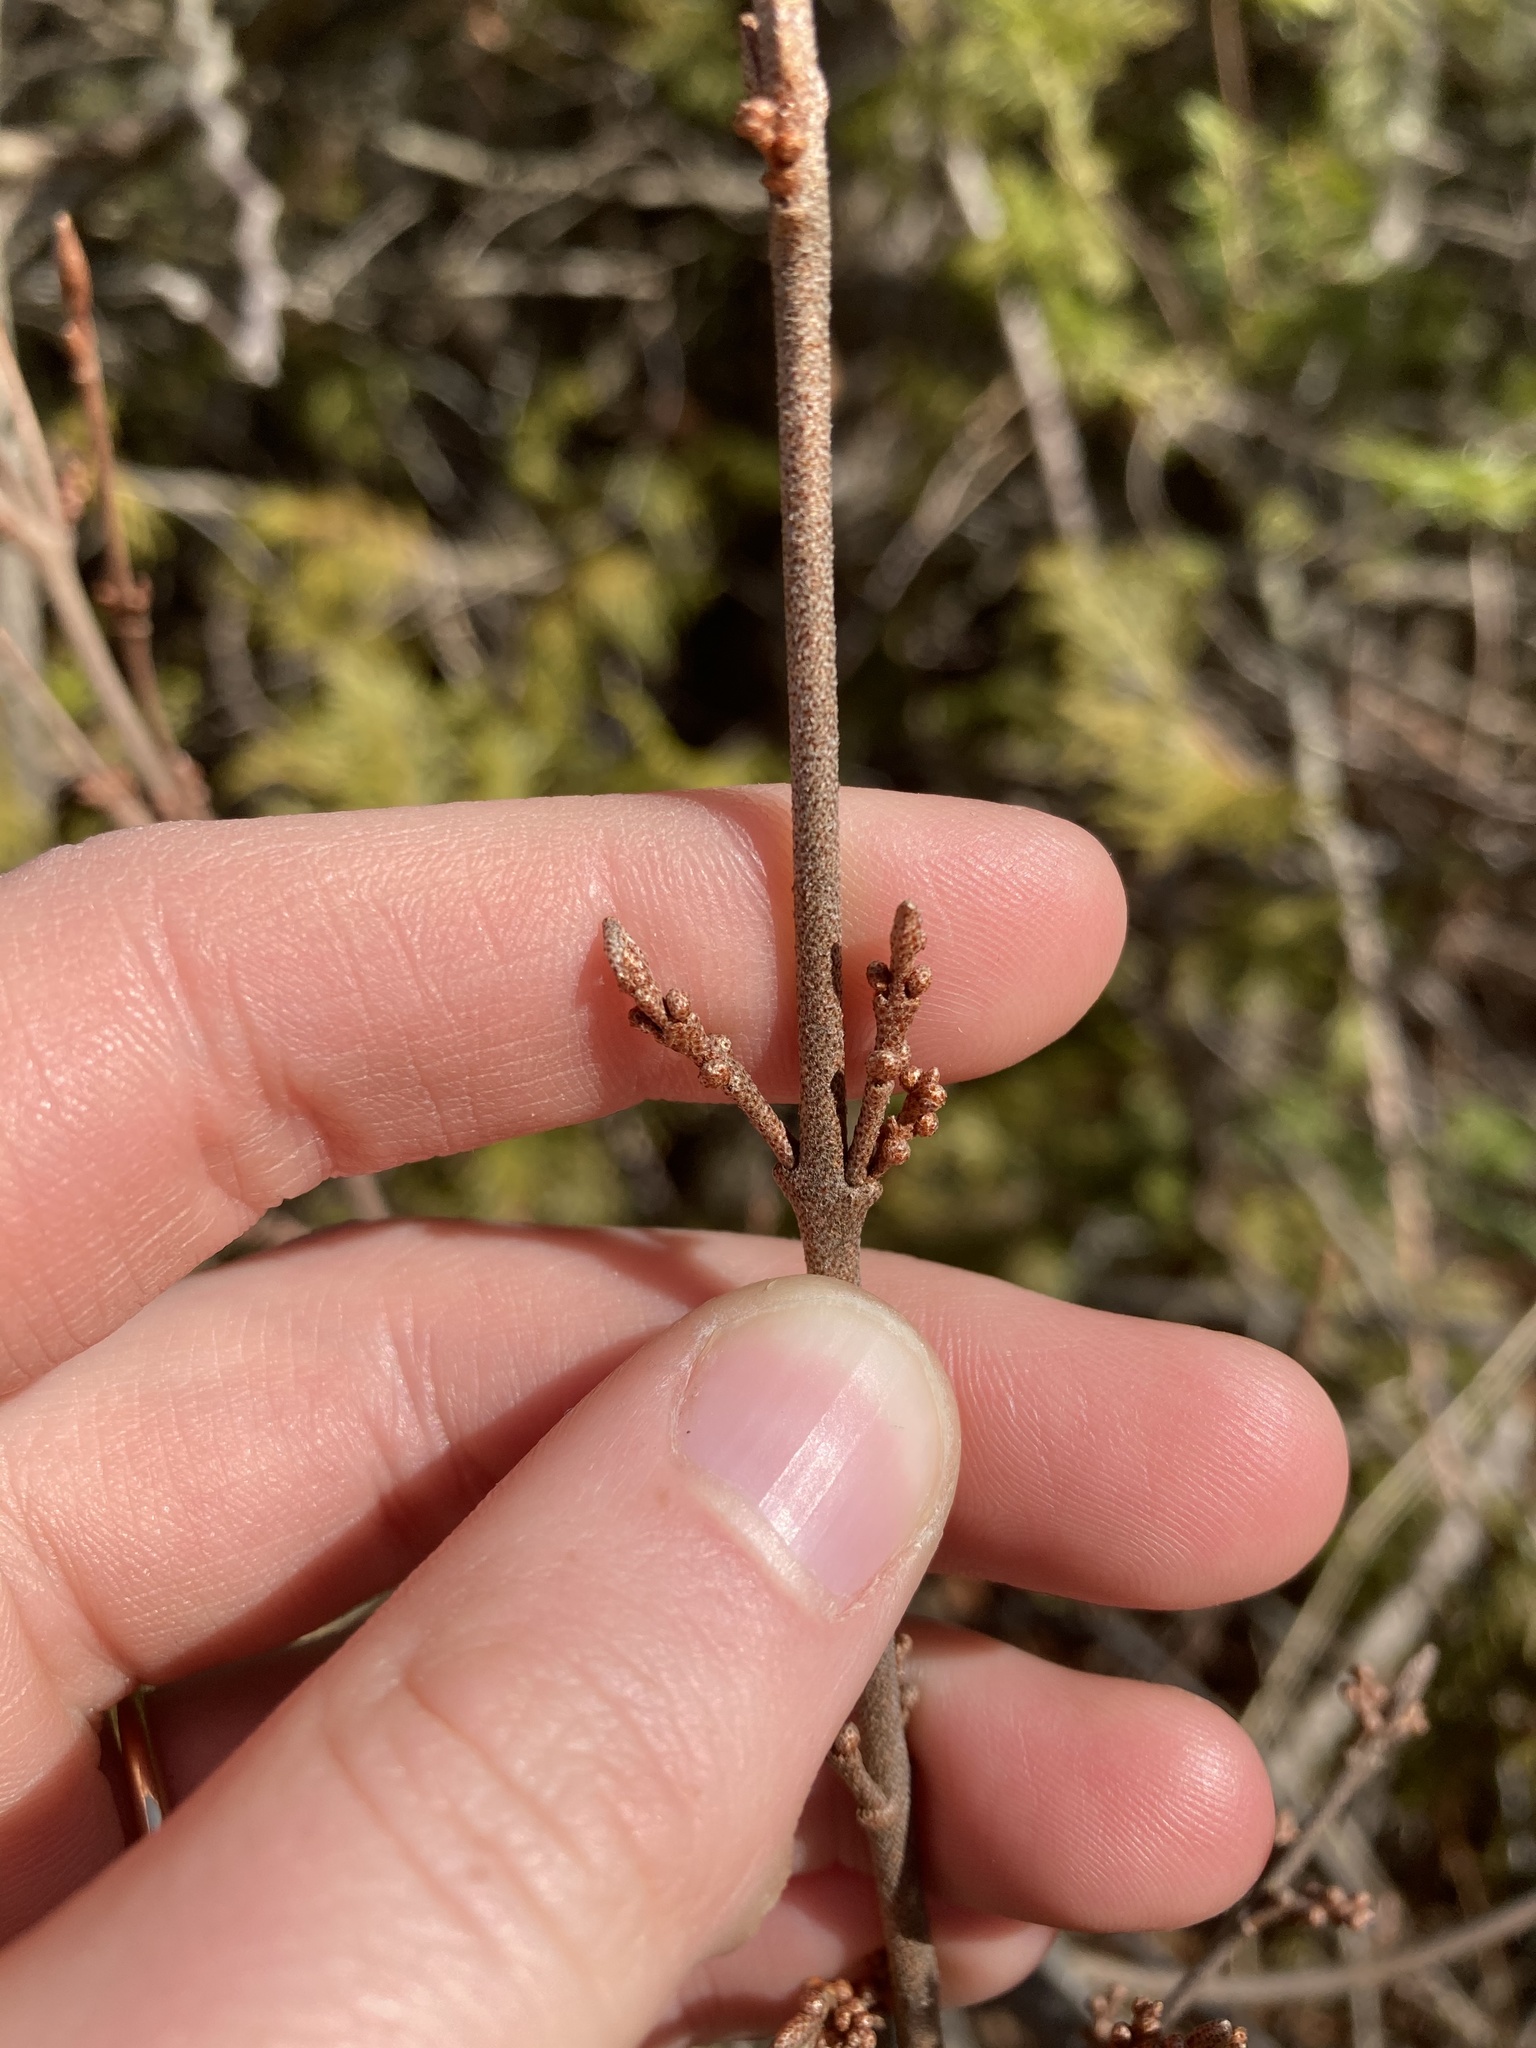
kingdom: Plantae
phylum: Tracheophyta
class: Magnoliopsida
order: Rosales
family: Elaeagnaceae
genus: Shepherdia
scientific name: Shepherdia canadensis
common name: Soapberry
